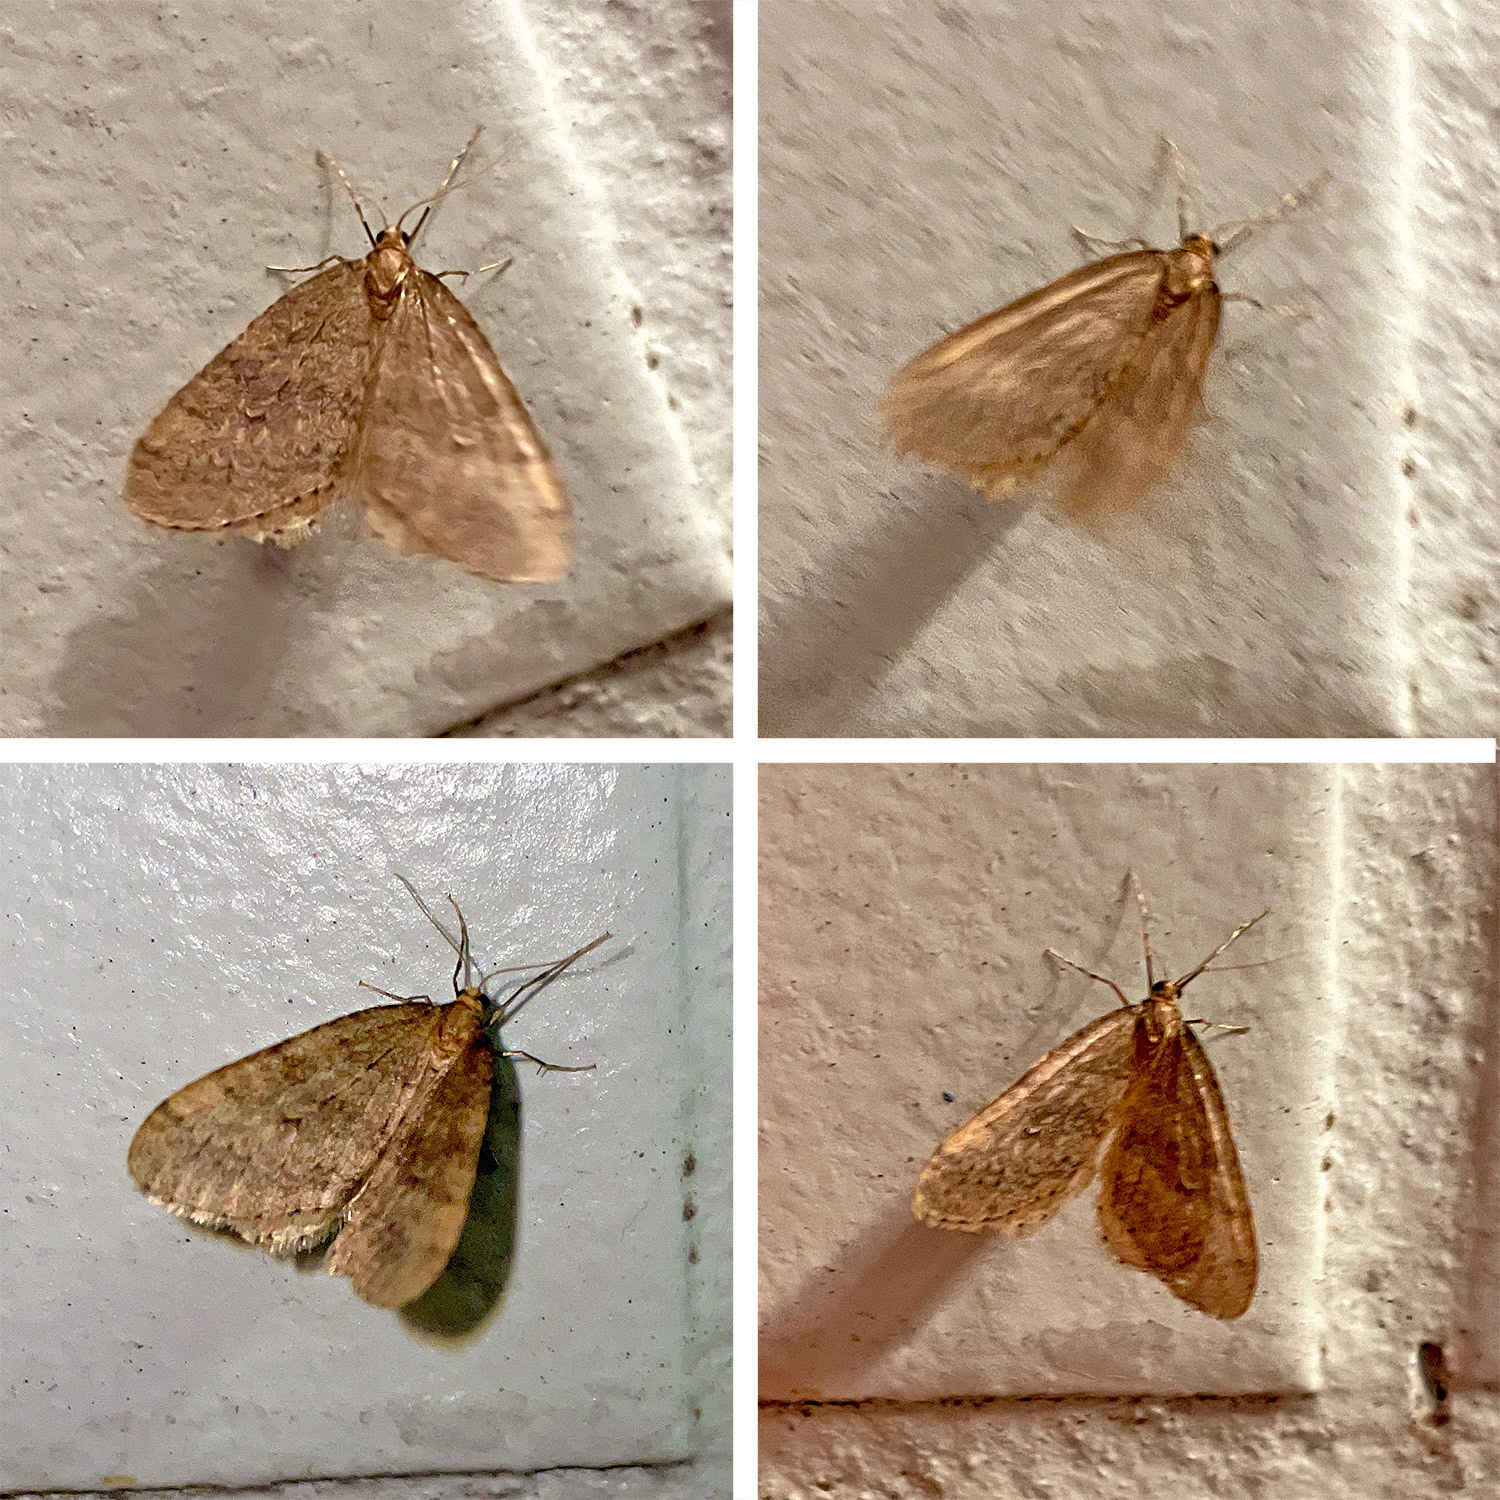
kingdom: Animalia
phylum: Arthropoda
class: Insecta
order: Lepidoptera
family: Geometridae
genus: Operophtera
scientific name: Operophtera brumata
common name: Winter moth
